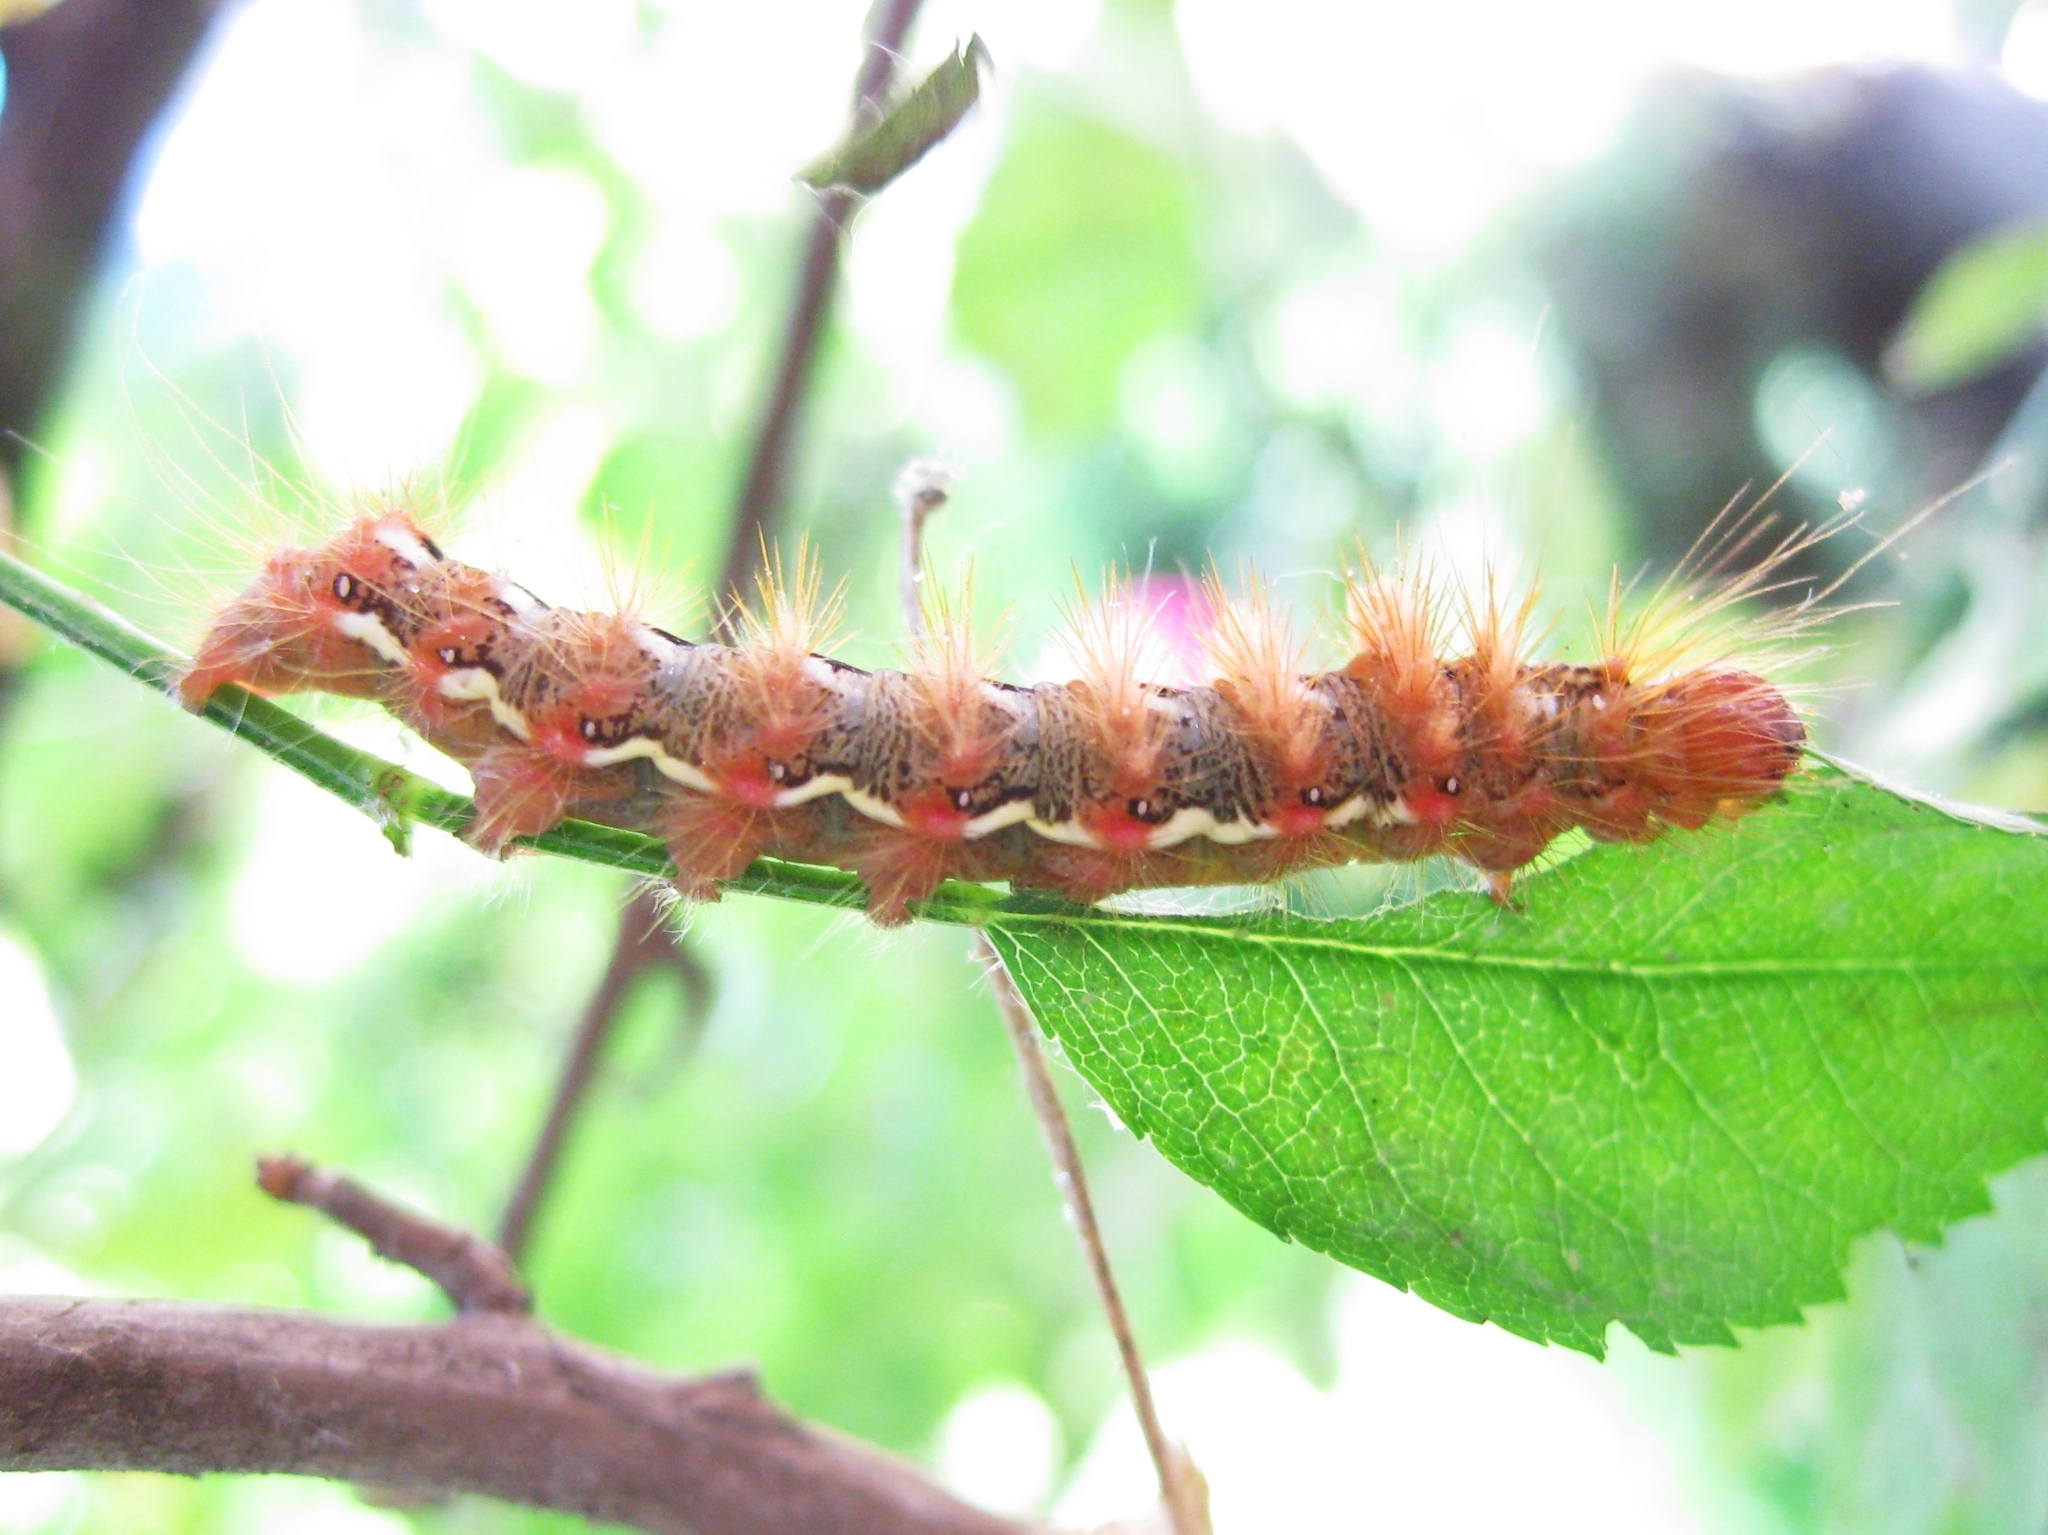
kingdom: Animalia
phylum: Arthropoda
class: Insecta
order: Lepidoptera
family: Noctuidae
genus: Acronicta
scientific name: Acronicta rumicis
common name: Knot grass
